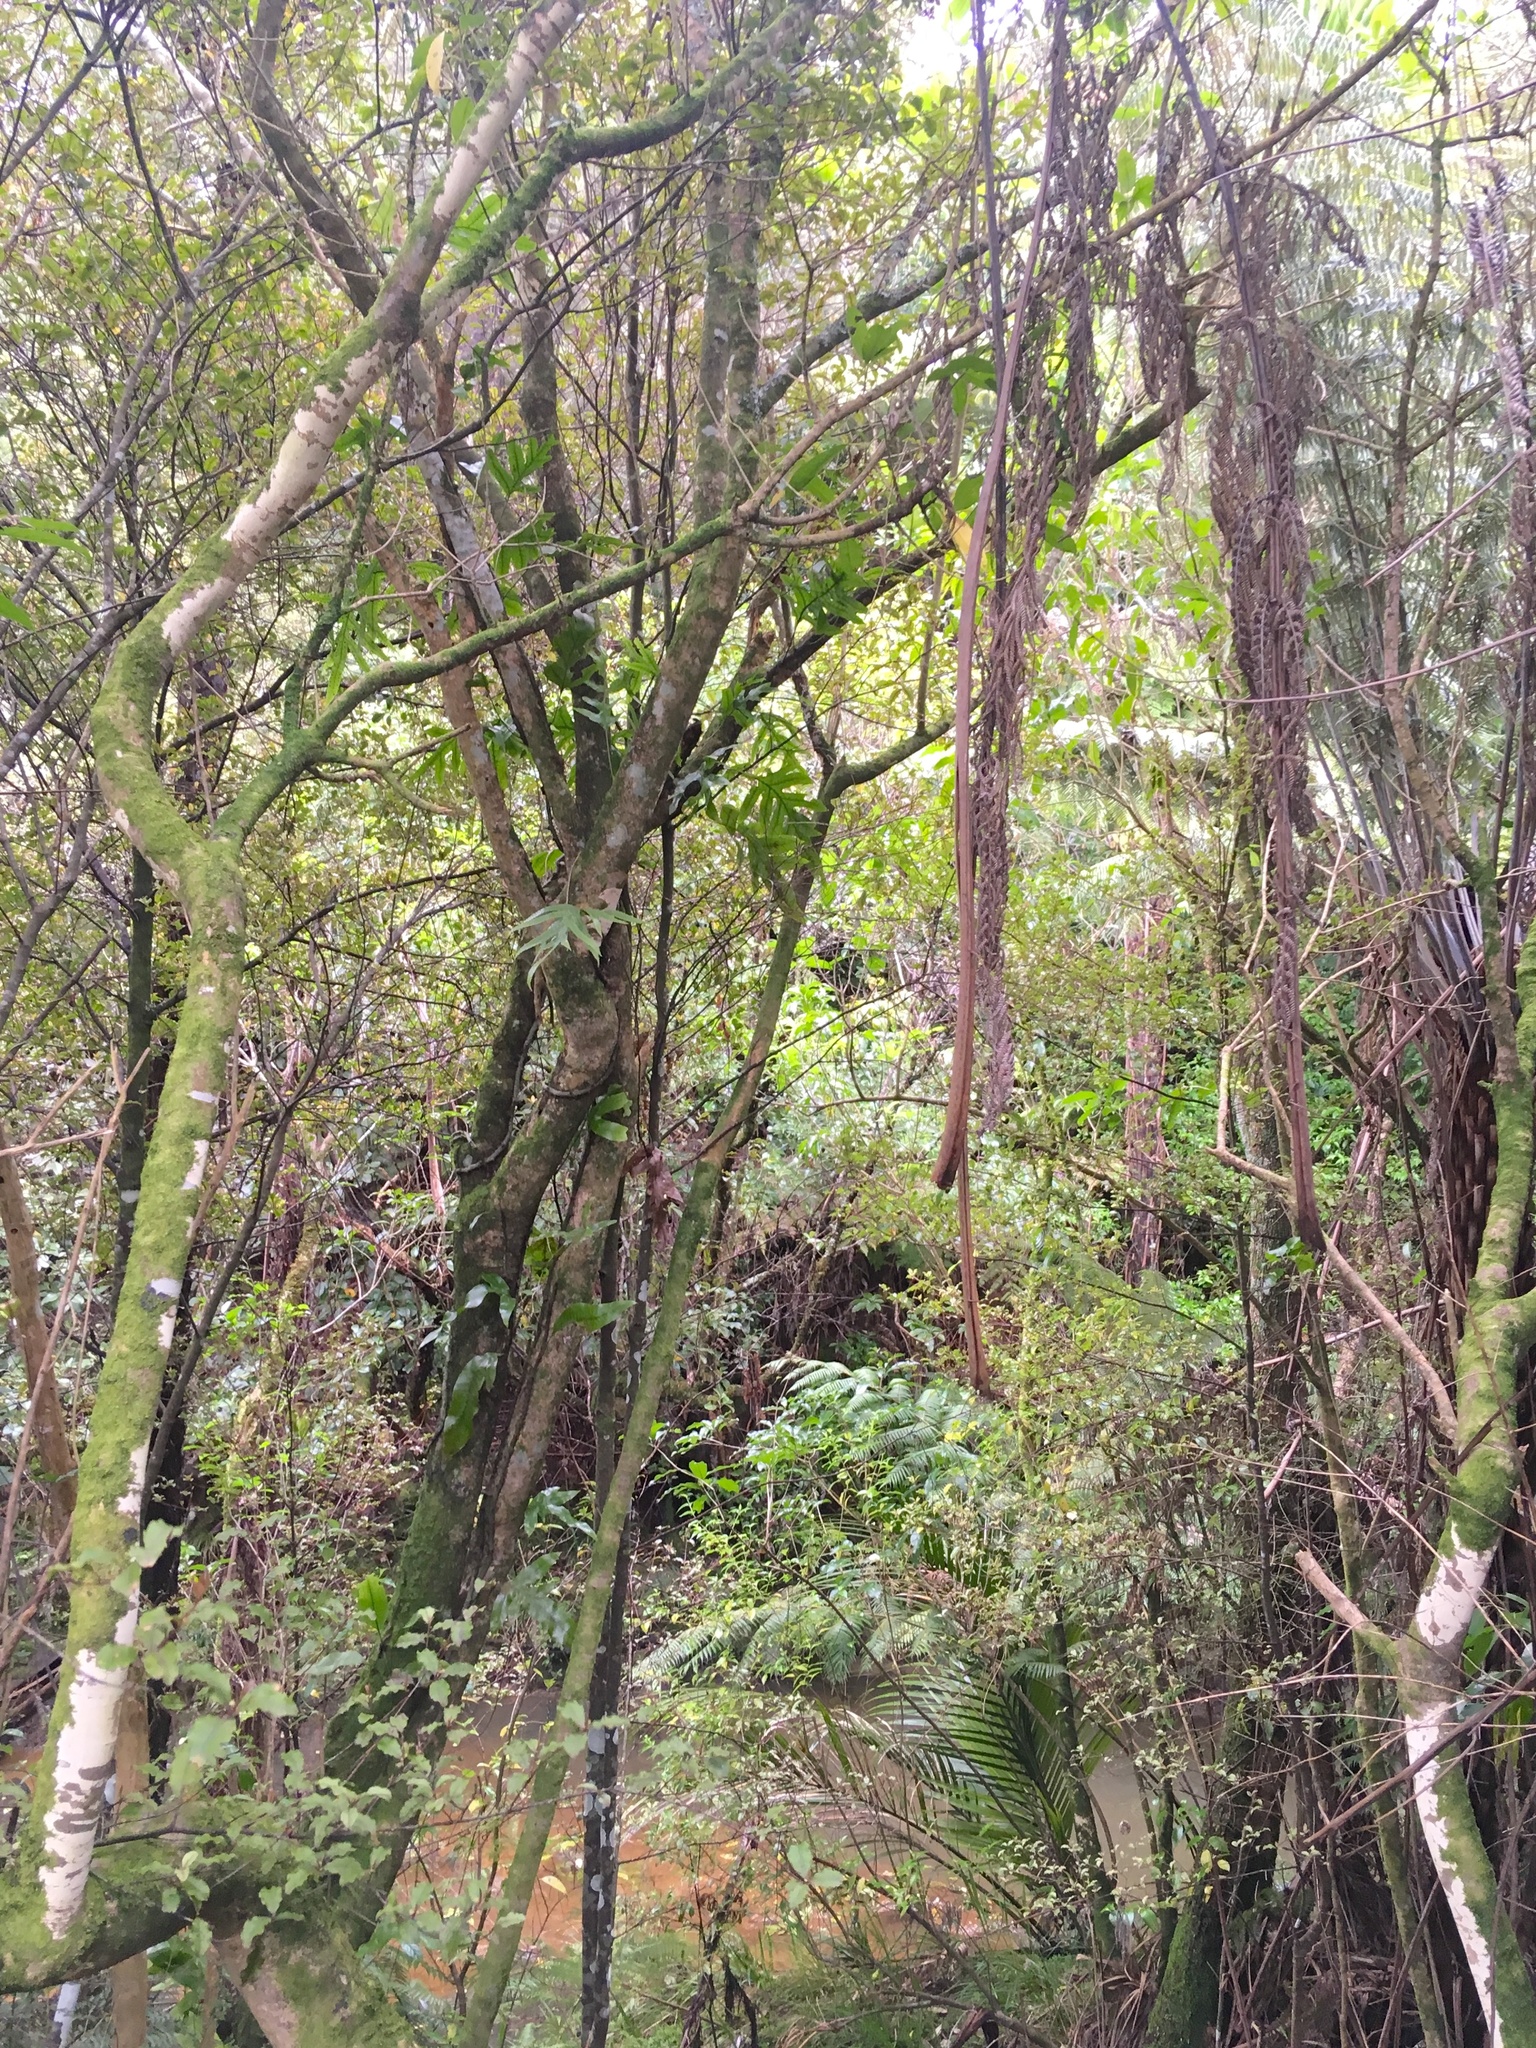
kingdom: Plantae
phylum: Tracheophyta
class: Polypodiopsida
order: Polypodiales
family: Polypodiaceae
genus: Lecanopteris
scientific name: Lecanopteris pustulata
